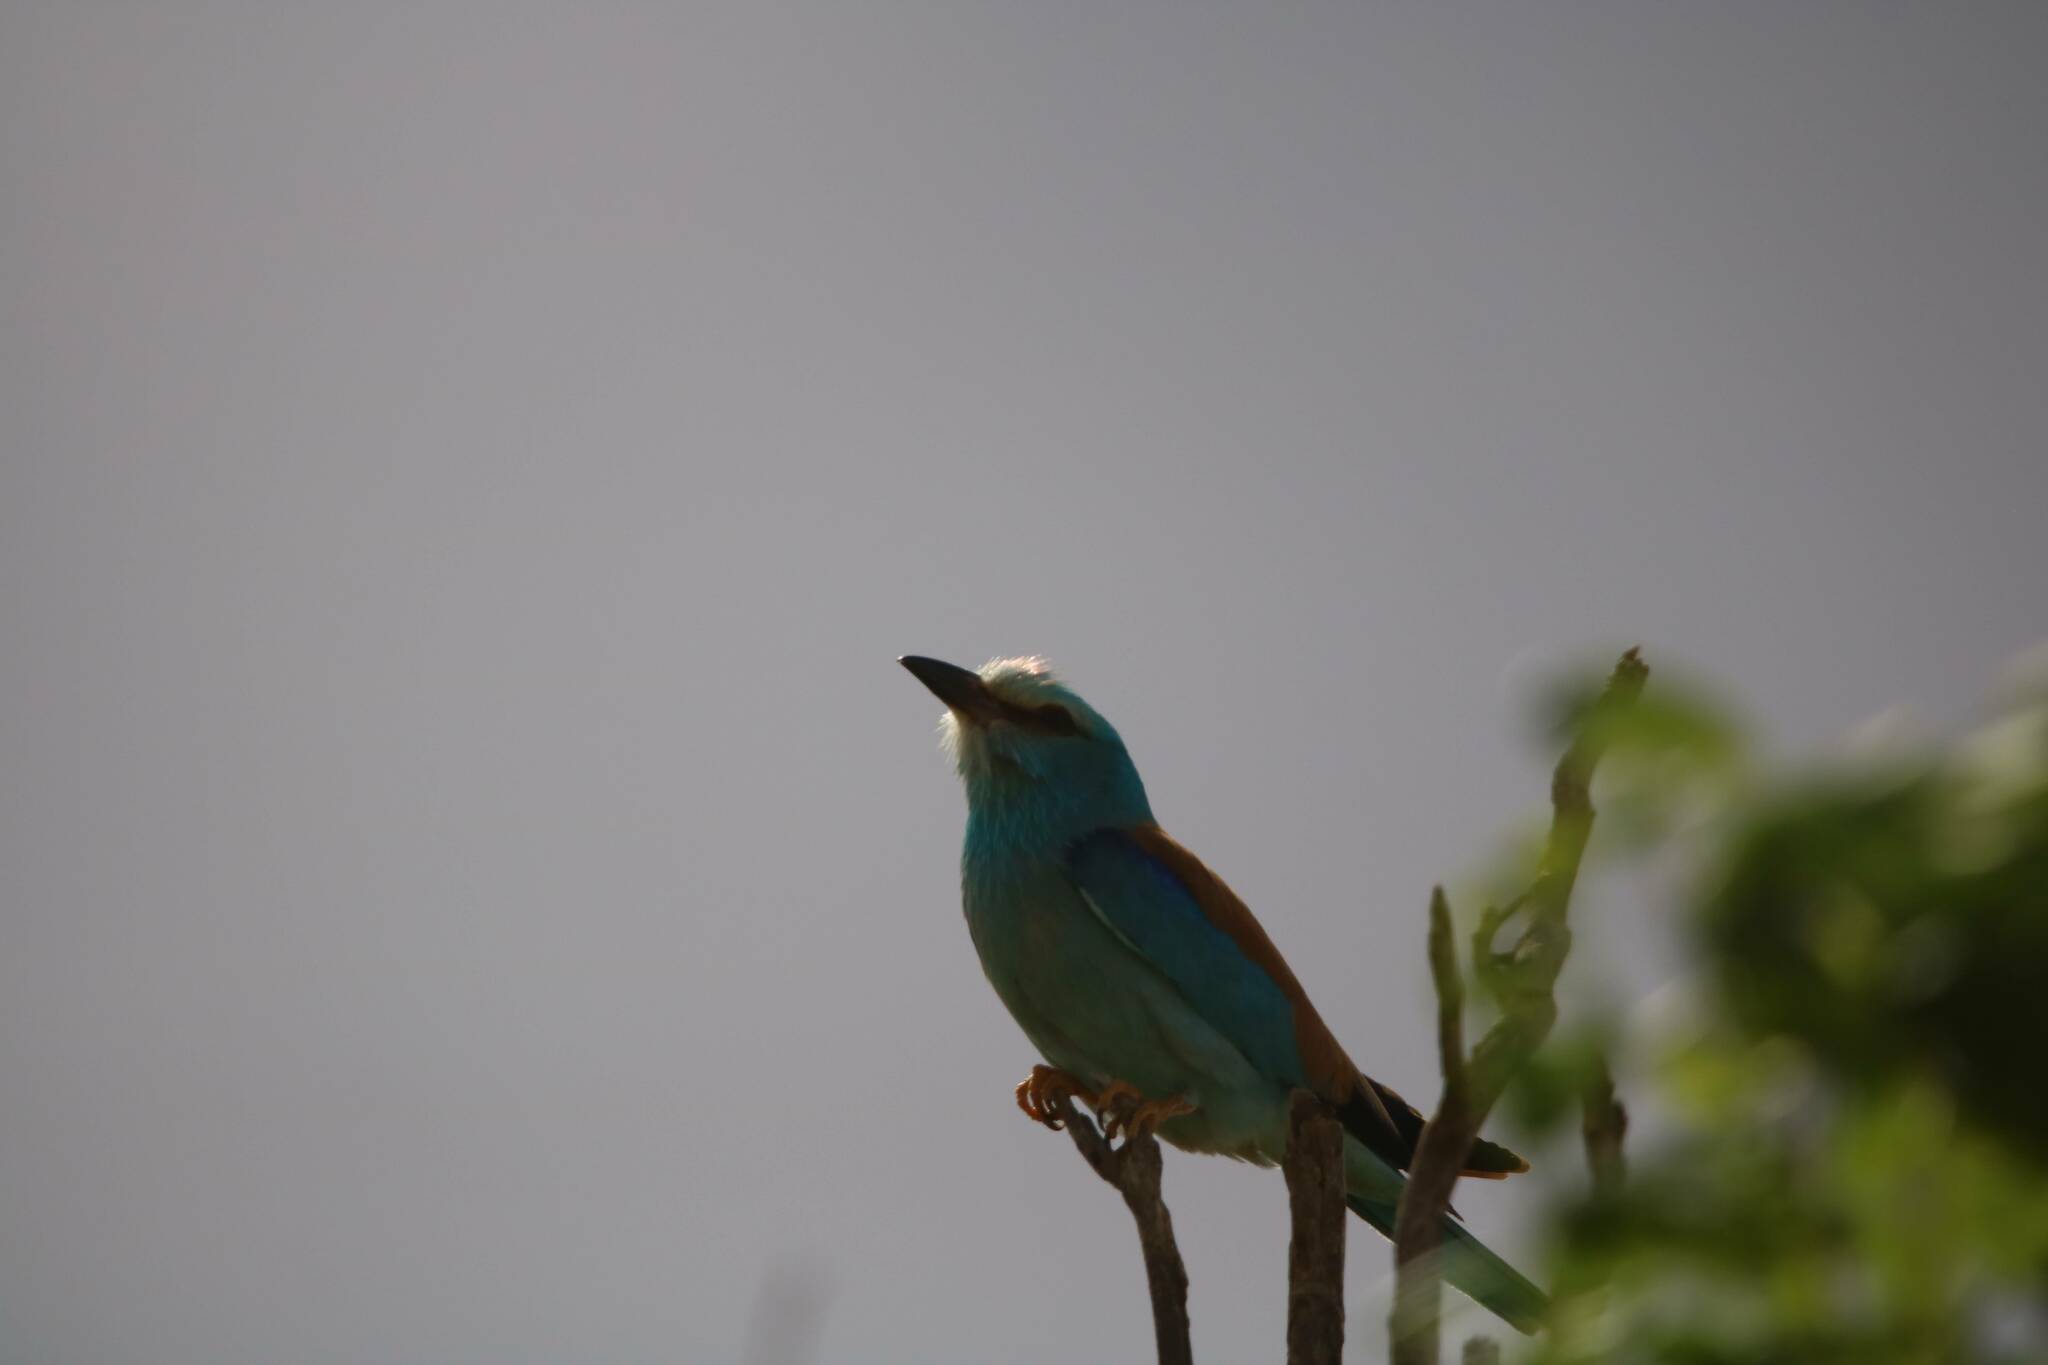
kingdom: Animalia
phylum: Chordata
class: Aves
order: Coraciiformes
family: Coraciidae
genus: Coracias
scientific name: Coracias garrulus
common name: European roller
